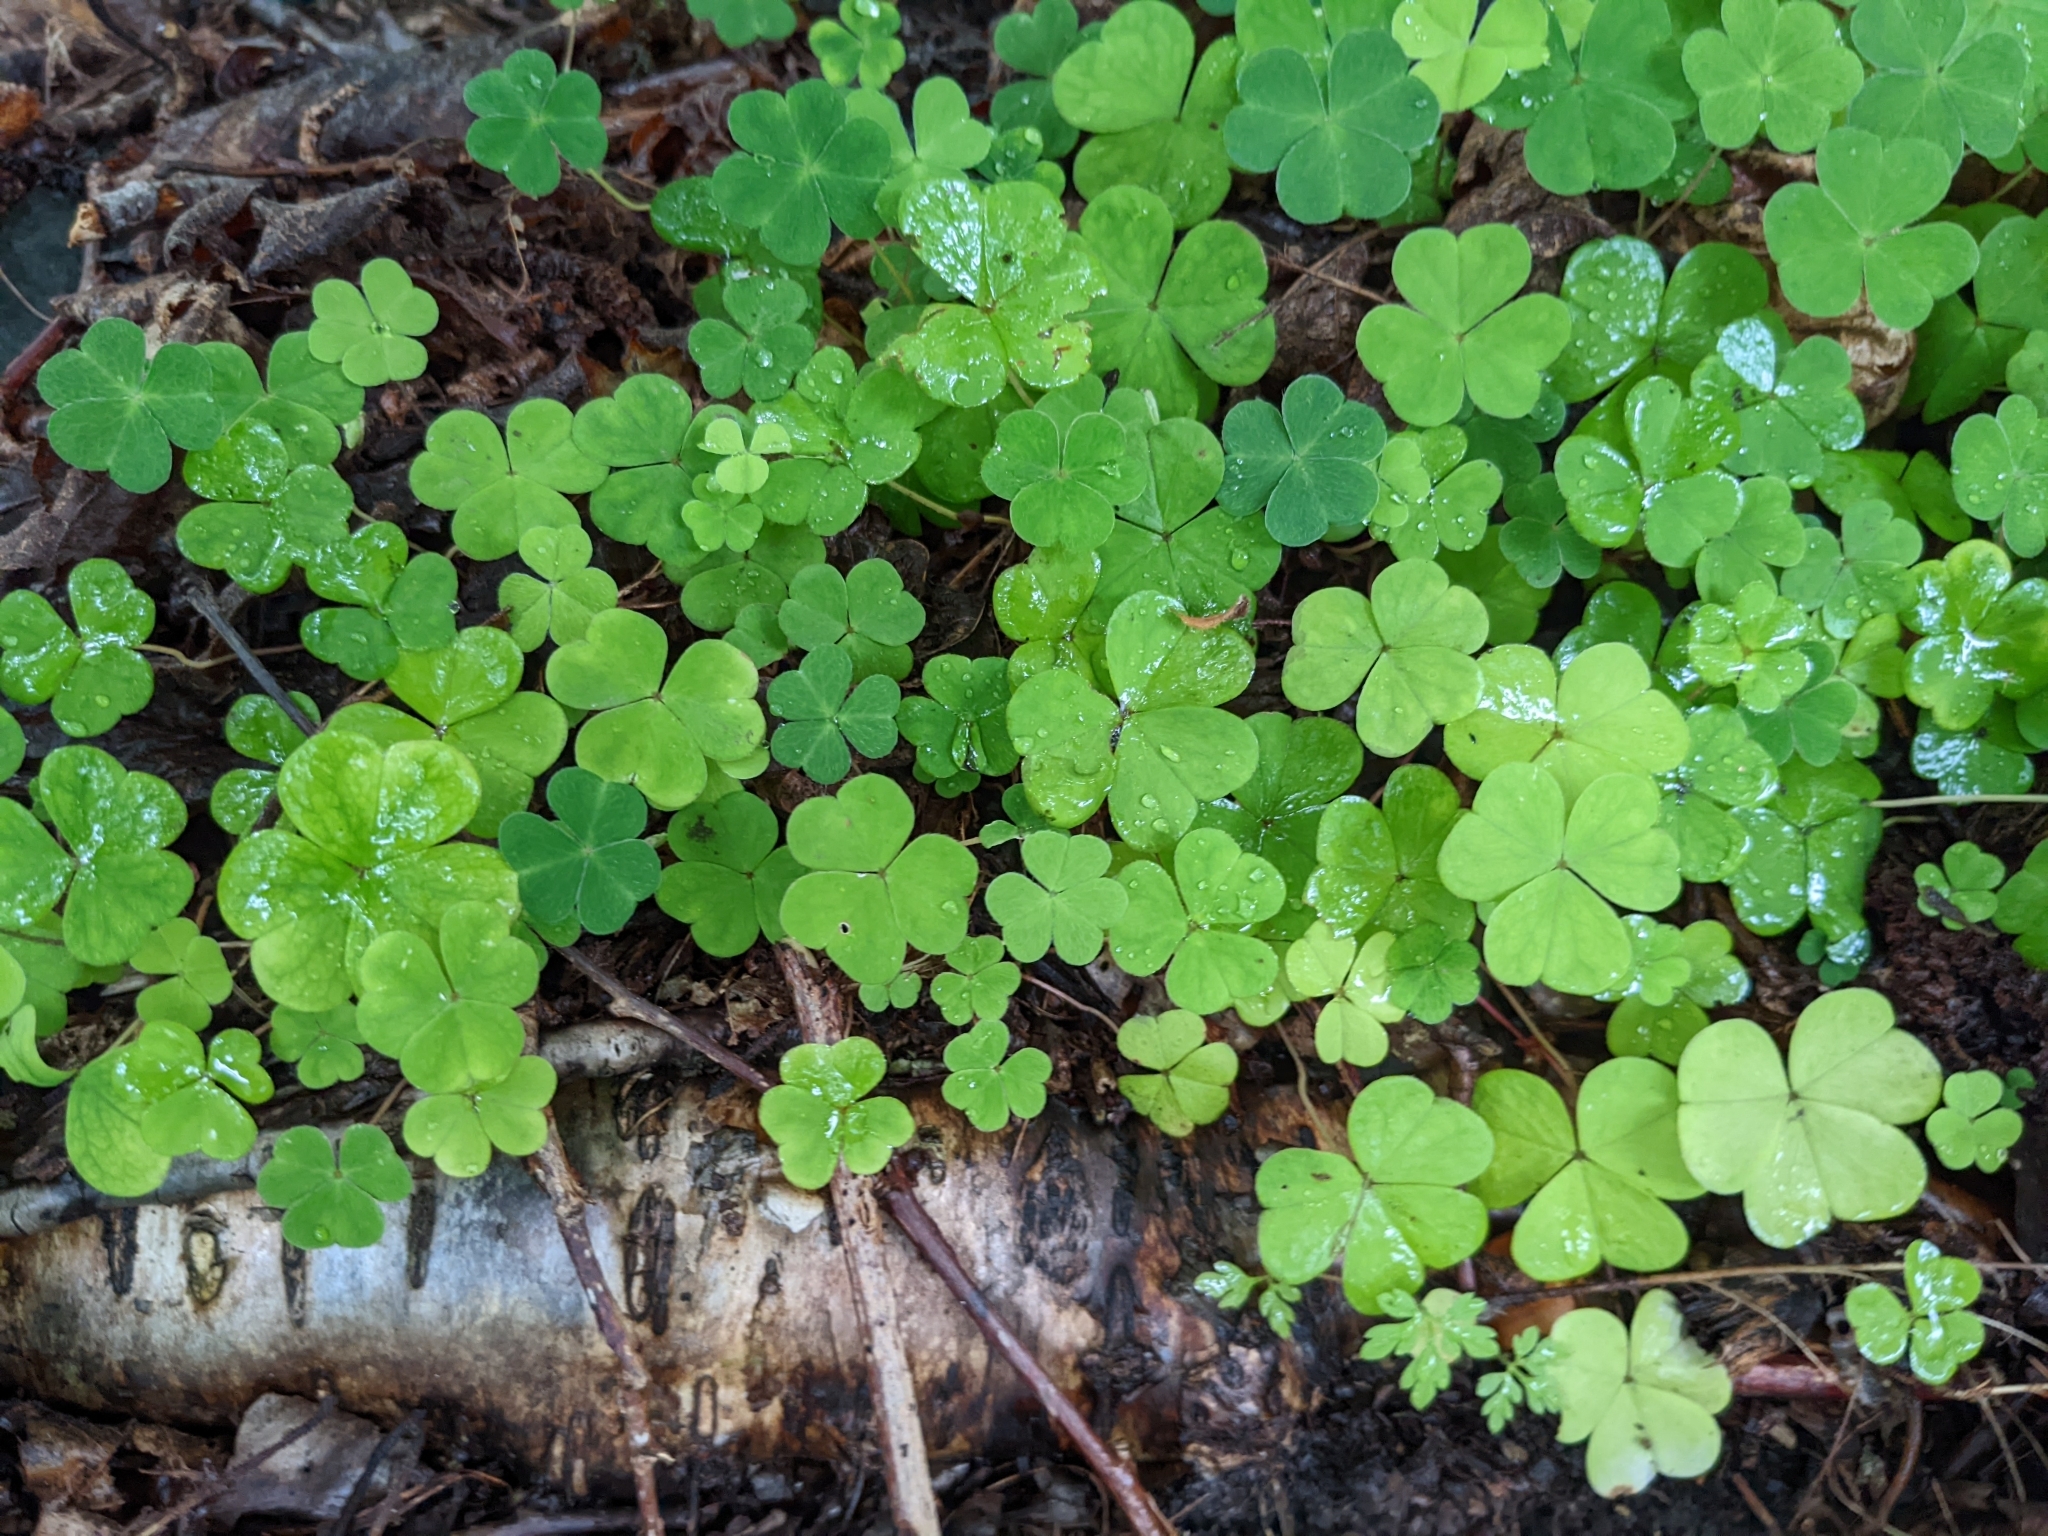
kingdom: Plantae
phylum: Tracheophyta
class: Magnoliopsida
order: Oxalidales
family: Oxalidaceae
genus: Oxalis
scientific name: Oxalis acetosella
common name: Wood-sorrel
